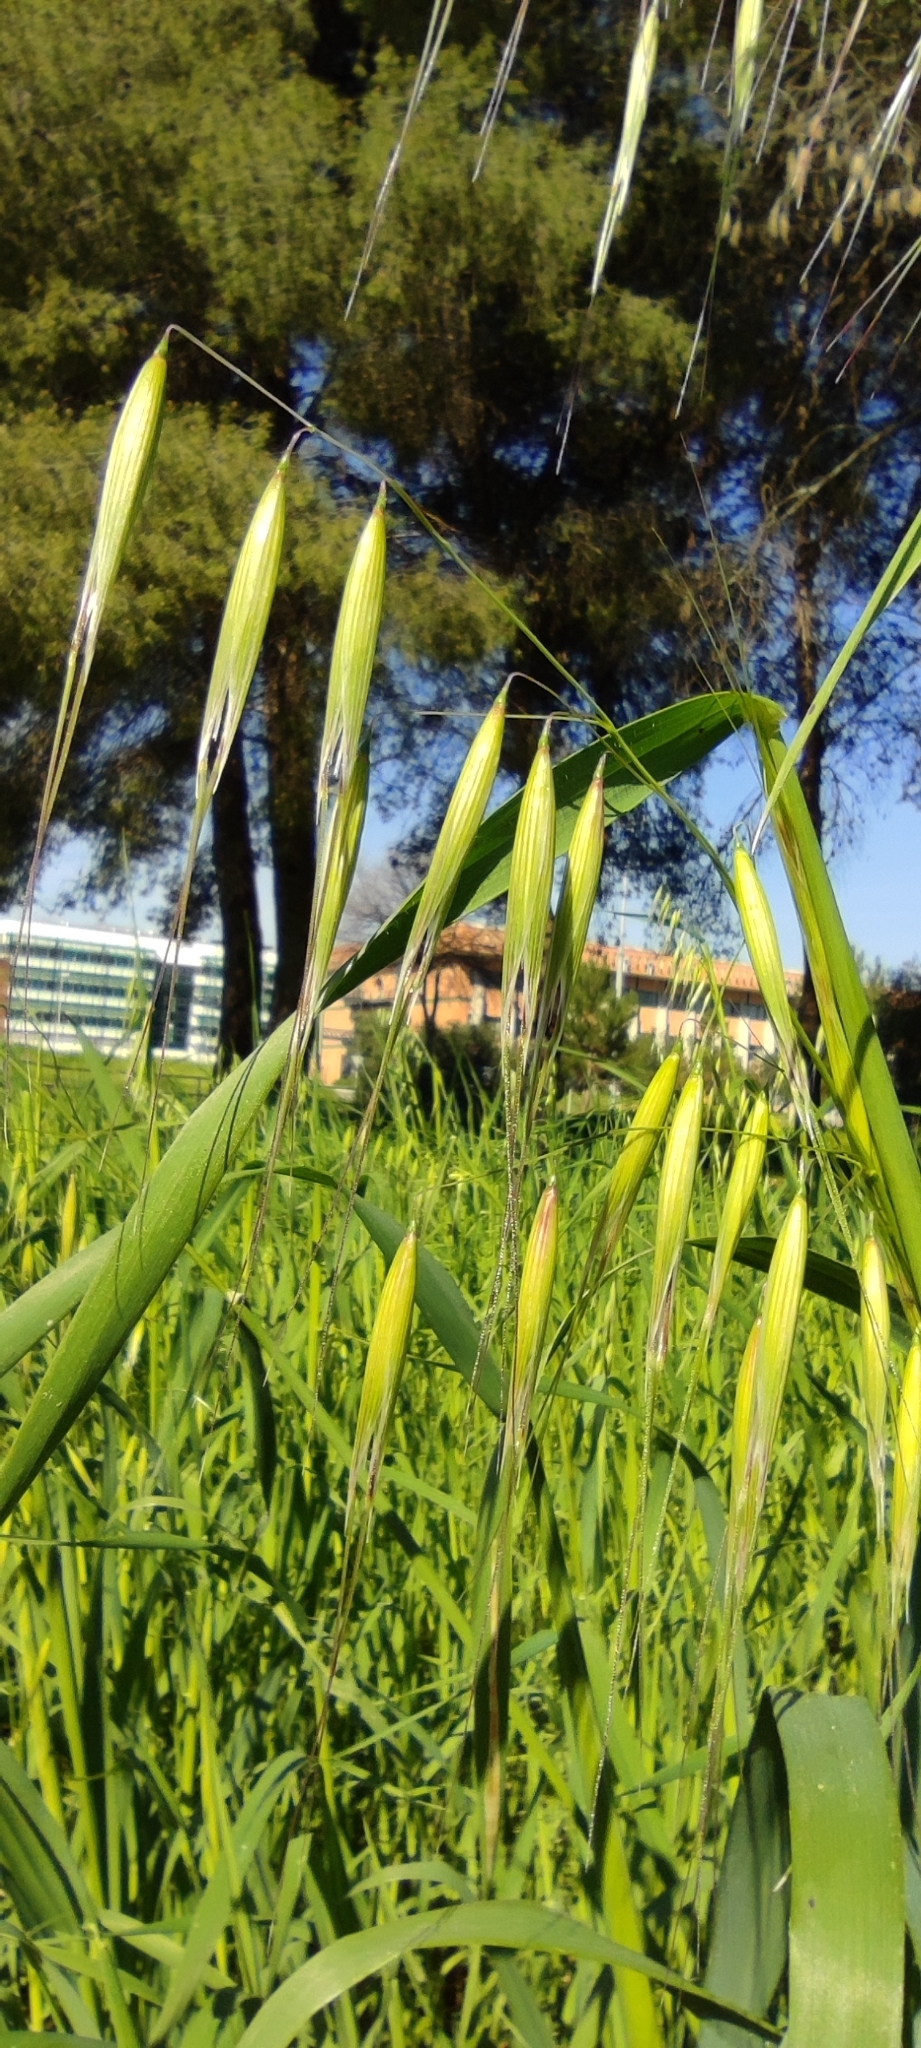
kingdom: Plantae
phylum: Tracheophyta
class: Liliopsida
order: Poales
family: Poaceae
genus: Avena
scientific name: Avena barbata
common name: Slender oat
